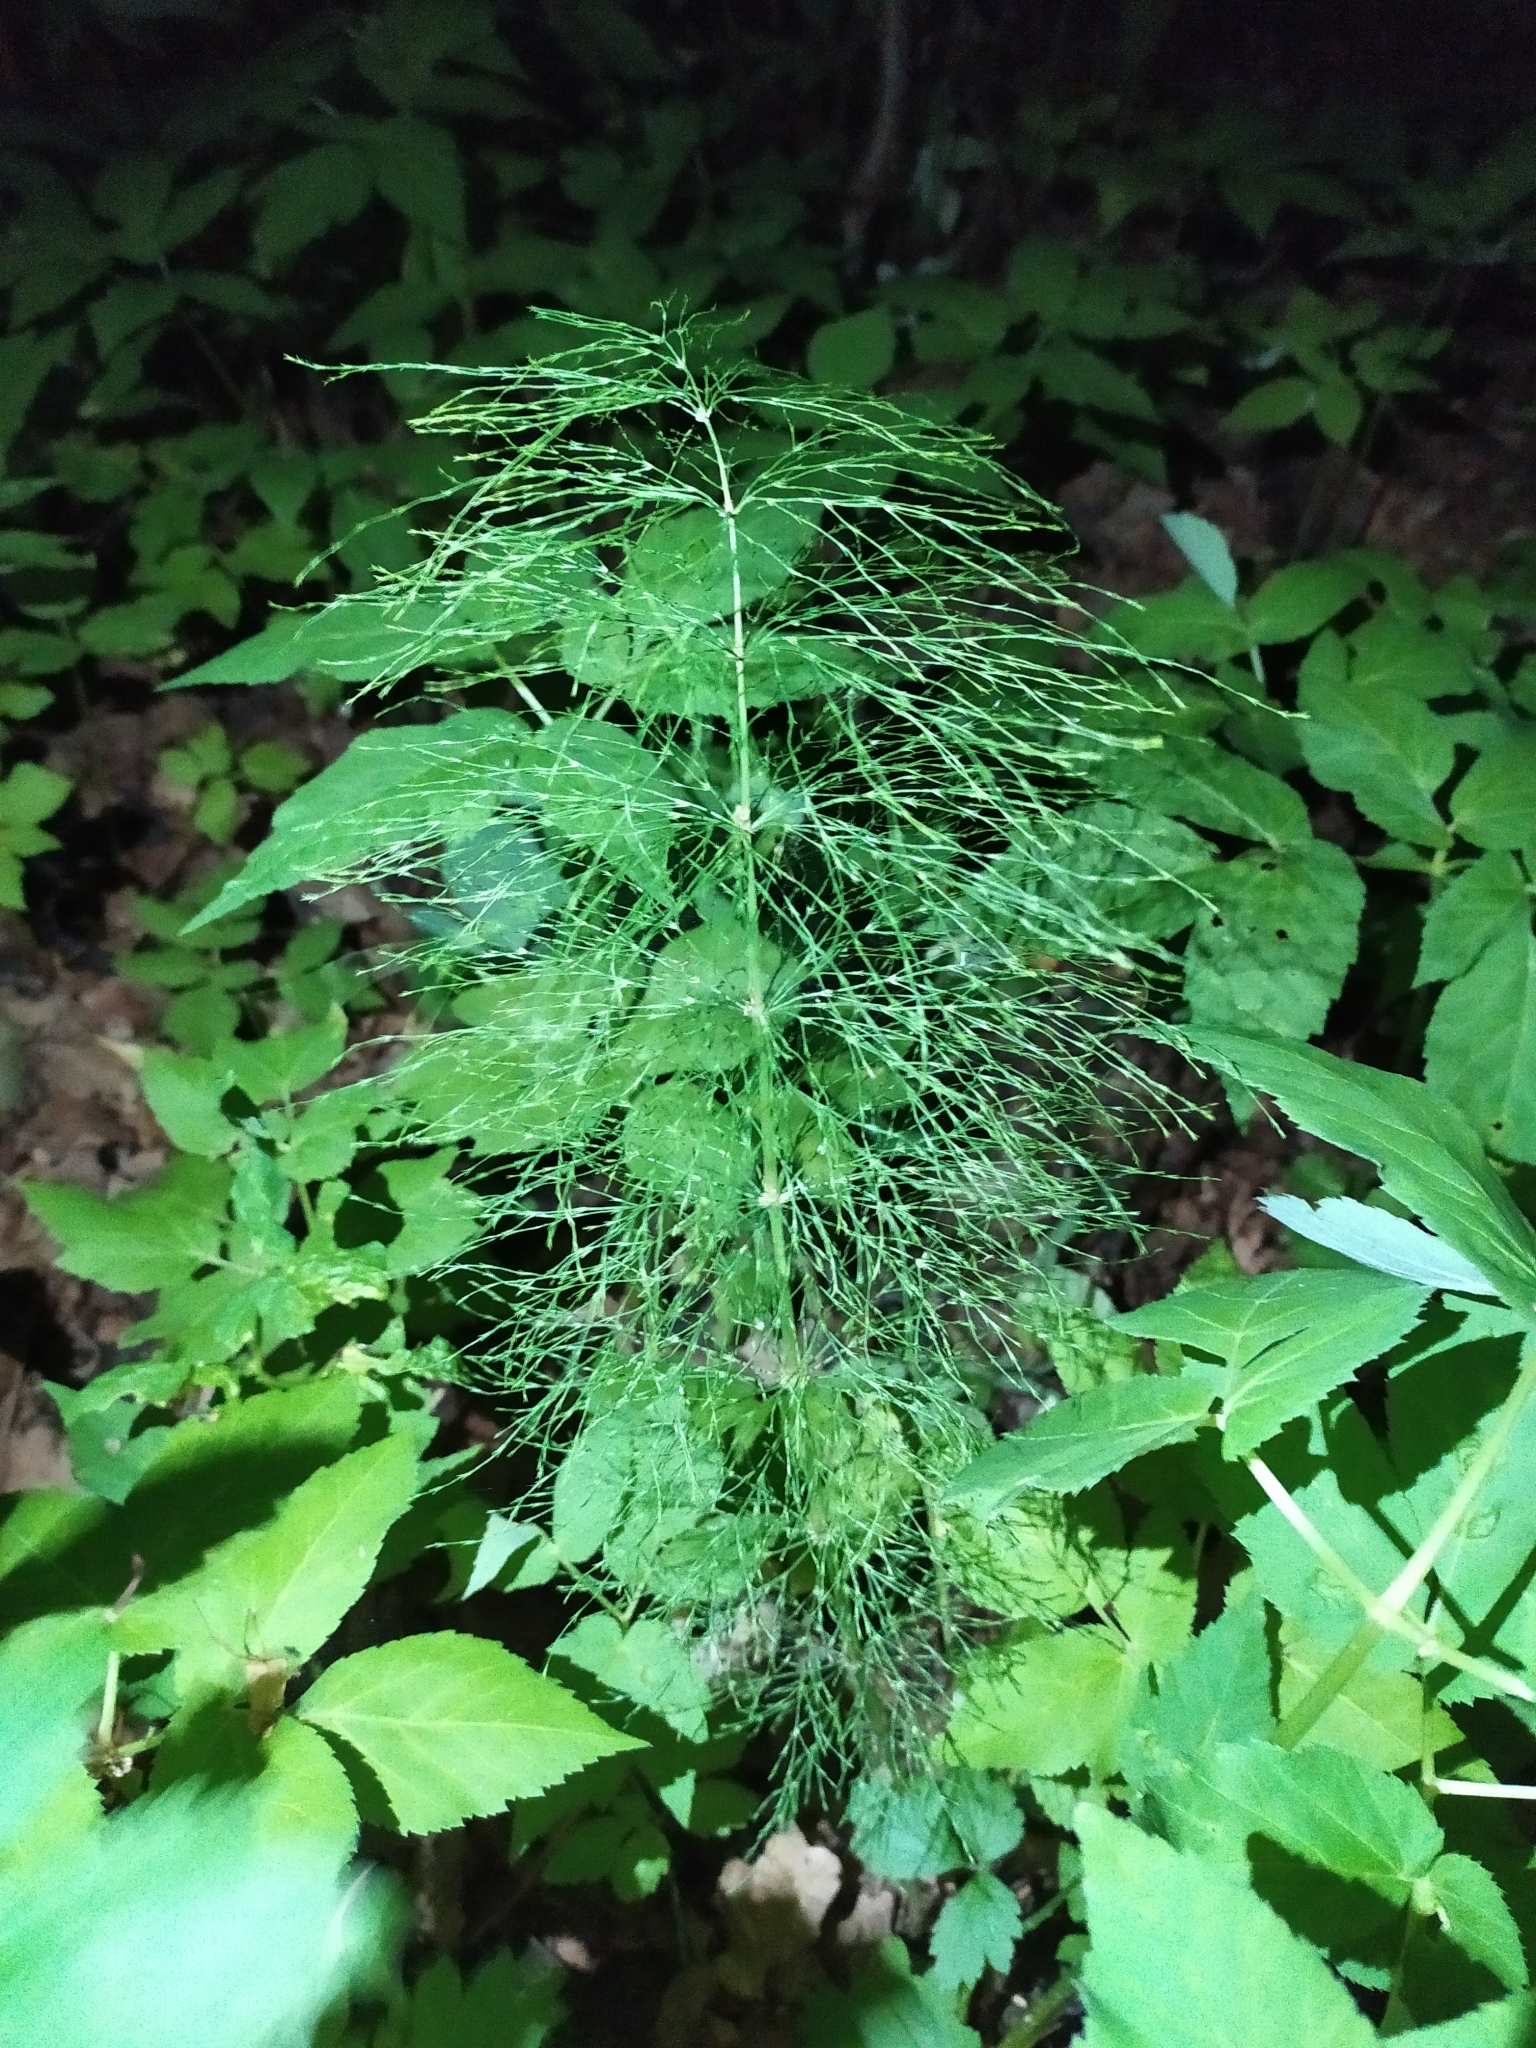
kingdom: Plantae
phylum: Tracheophyta
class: Polypodiopsida
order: Equisetales
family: Equisetaceae
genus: Equisetum
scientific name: Equisetum sylvaticum
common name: Wood horsetail
